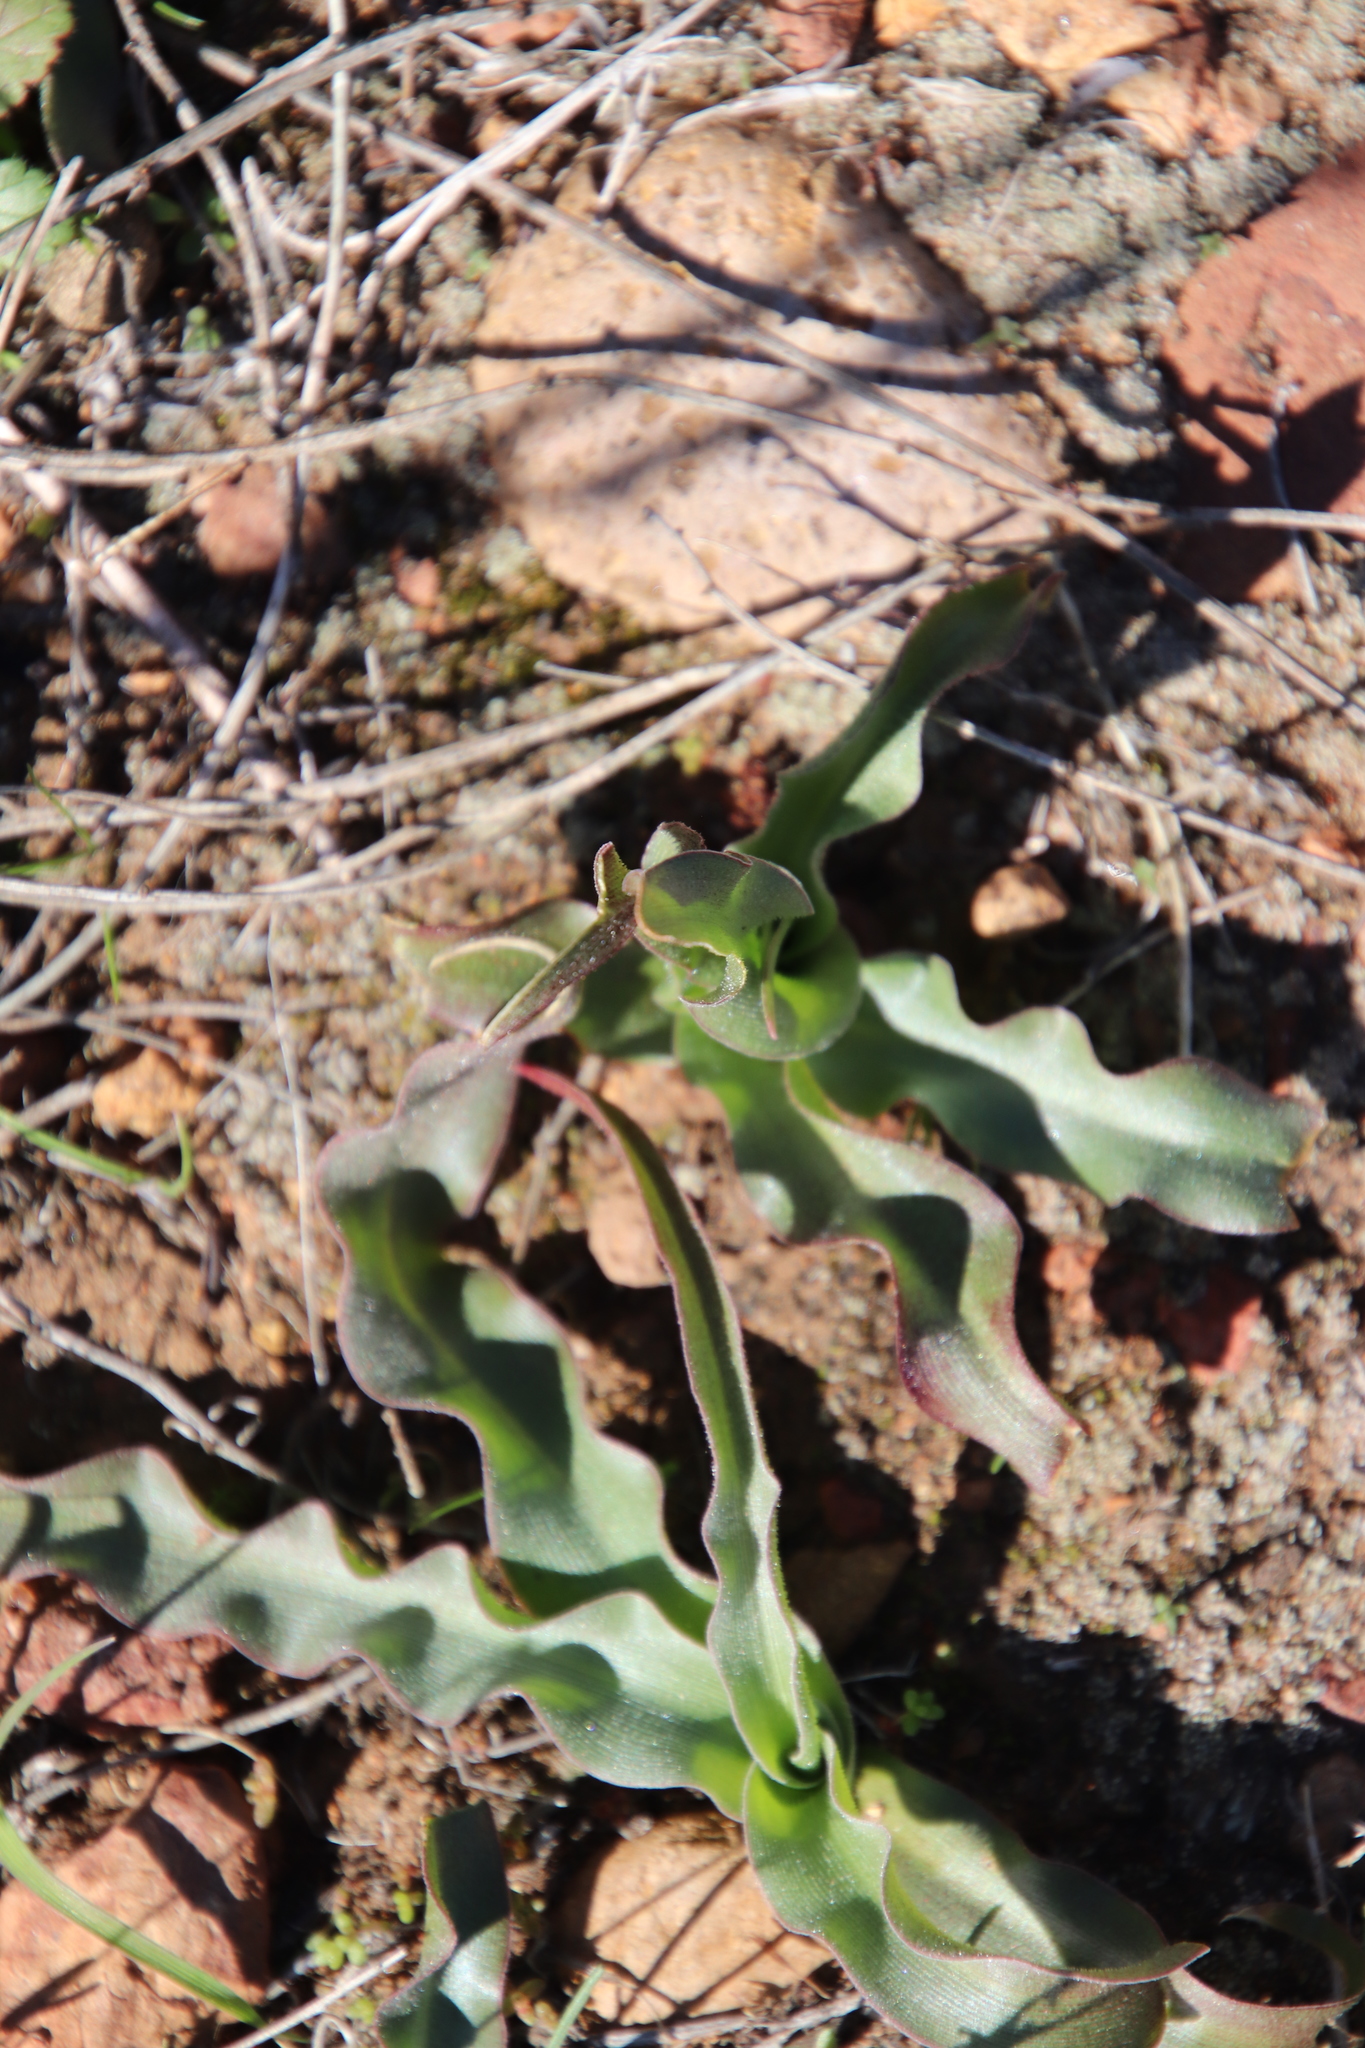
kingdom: Plantae
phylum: Tracheophyta
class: Liliopsida
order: Asparagales
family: Asparagaceae
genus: Hooveria
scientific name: Hooveria parviflora
